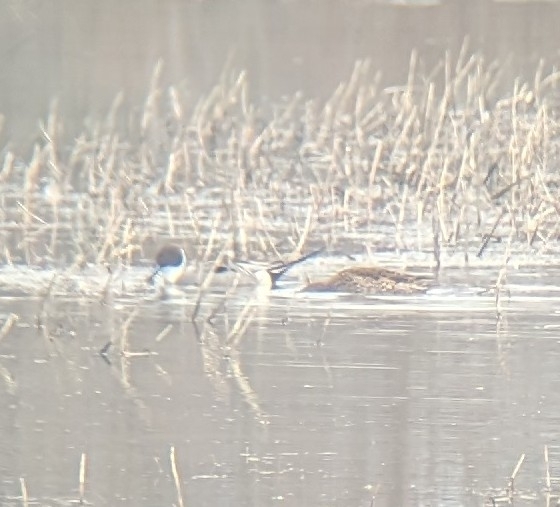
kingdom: Animalia
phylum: Chordata
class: Aves
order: Anseriformes
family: Anatidae
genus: Anas
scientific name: Anas acuta
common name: Northern pintail
